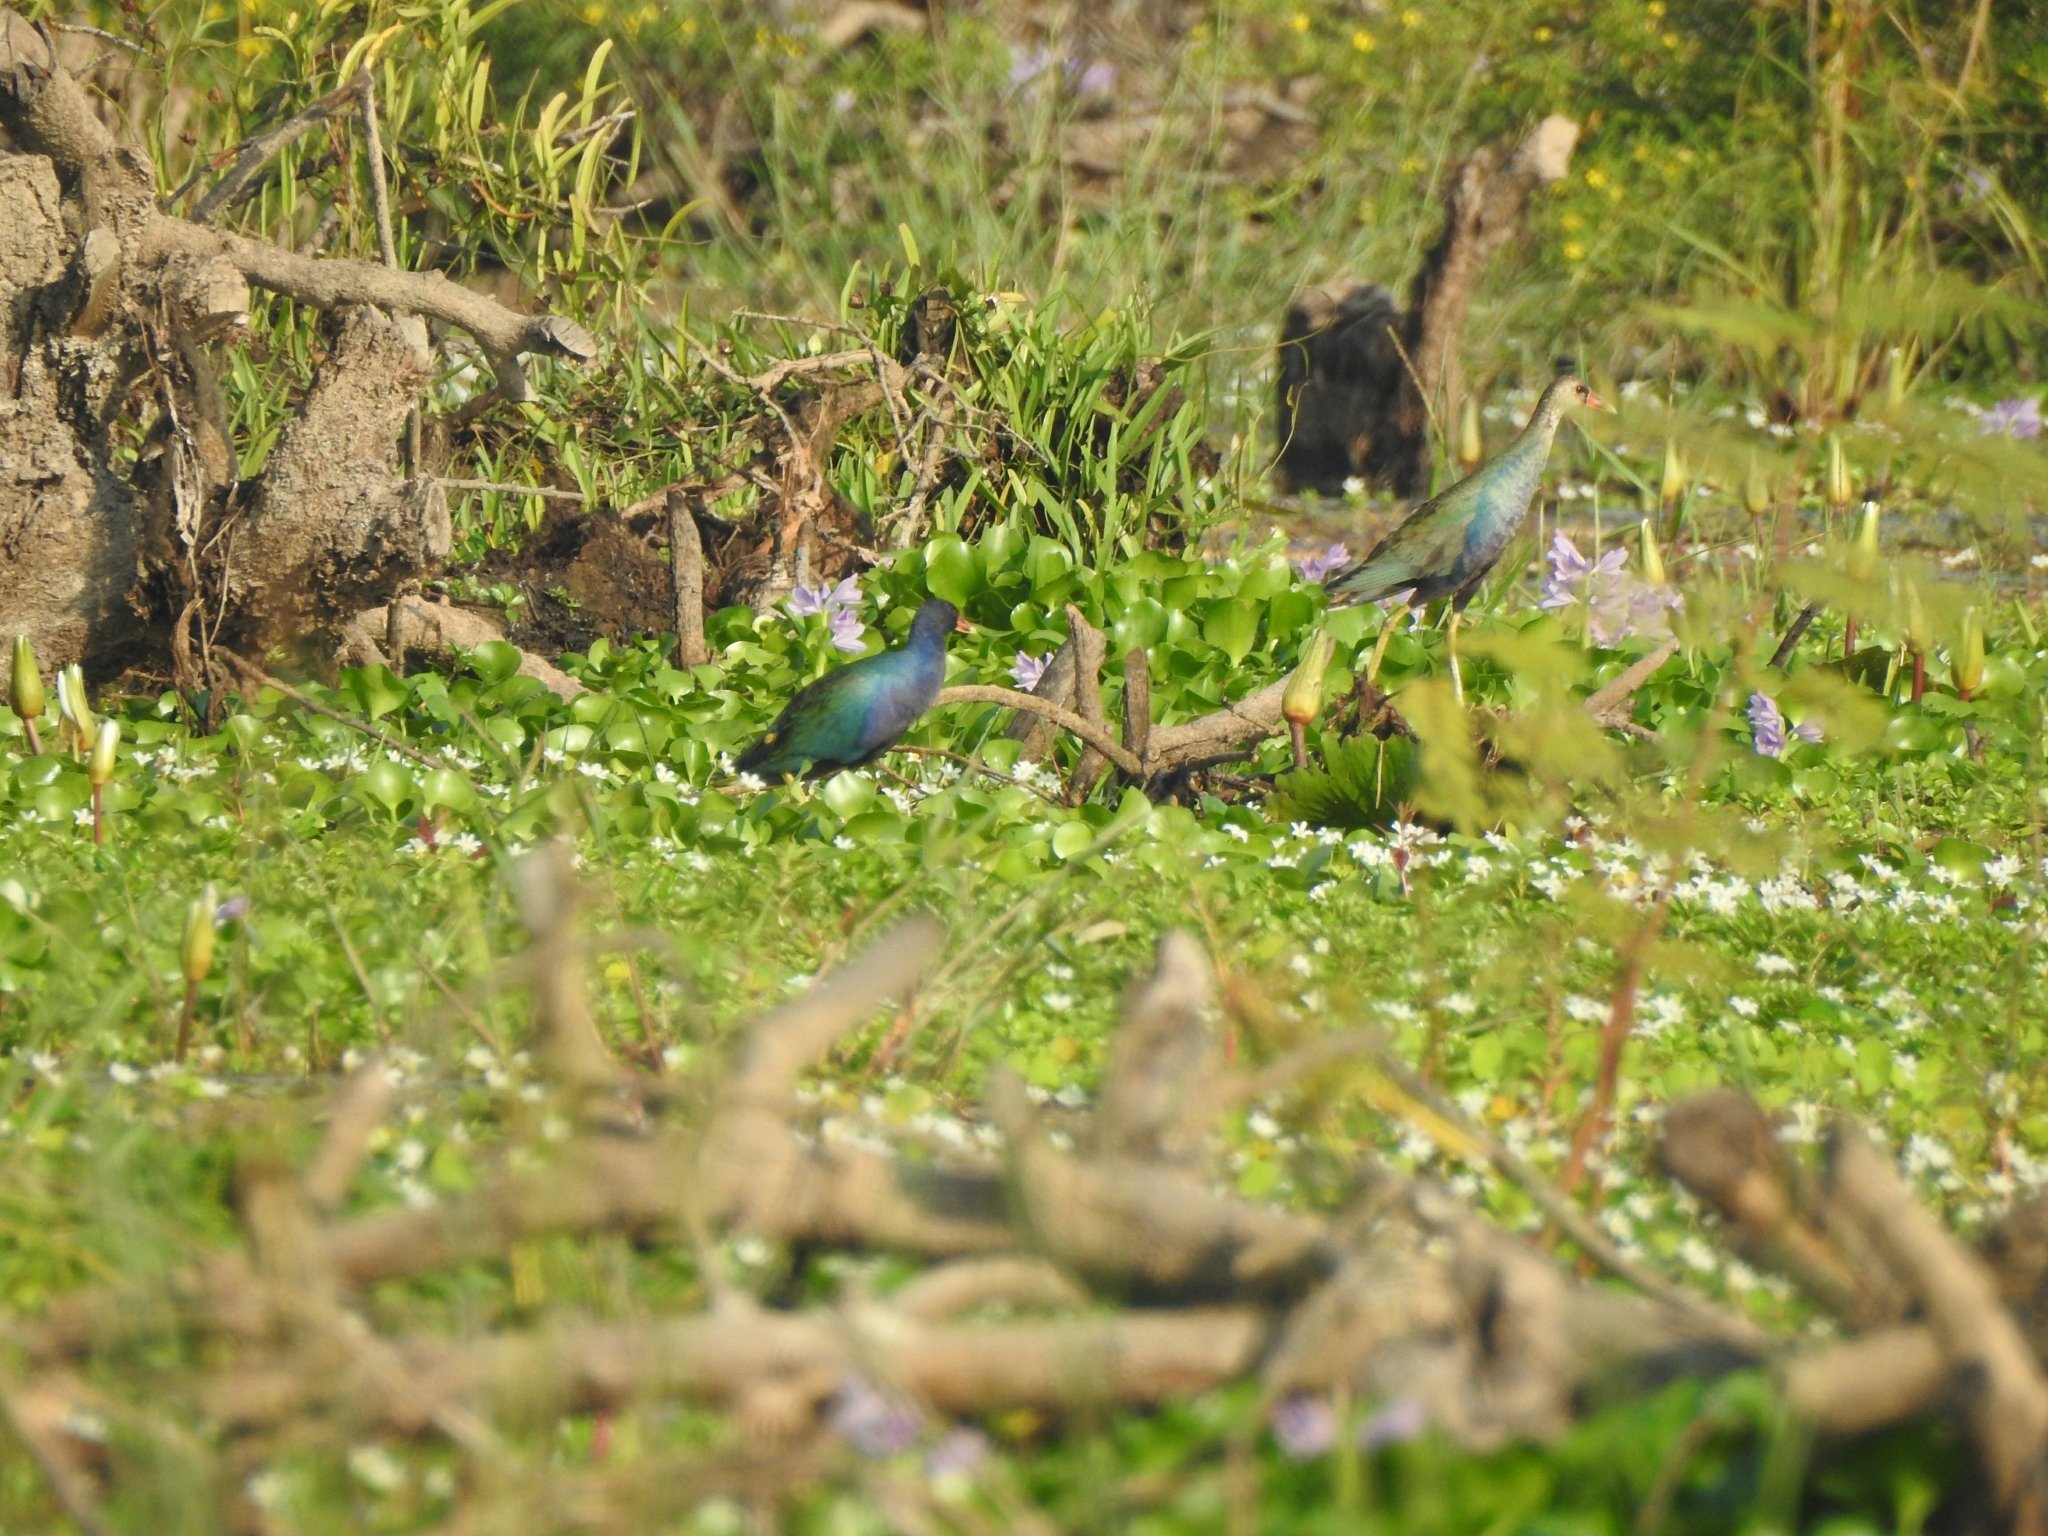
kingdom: Animalia
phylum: Chordata
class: Aves
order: Gruiformes
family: Rallidae
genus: Porphyrio
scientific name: Porphyrio martinica
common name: Purple gallinule
